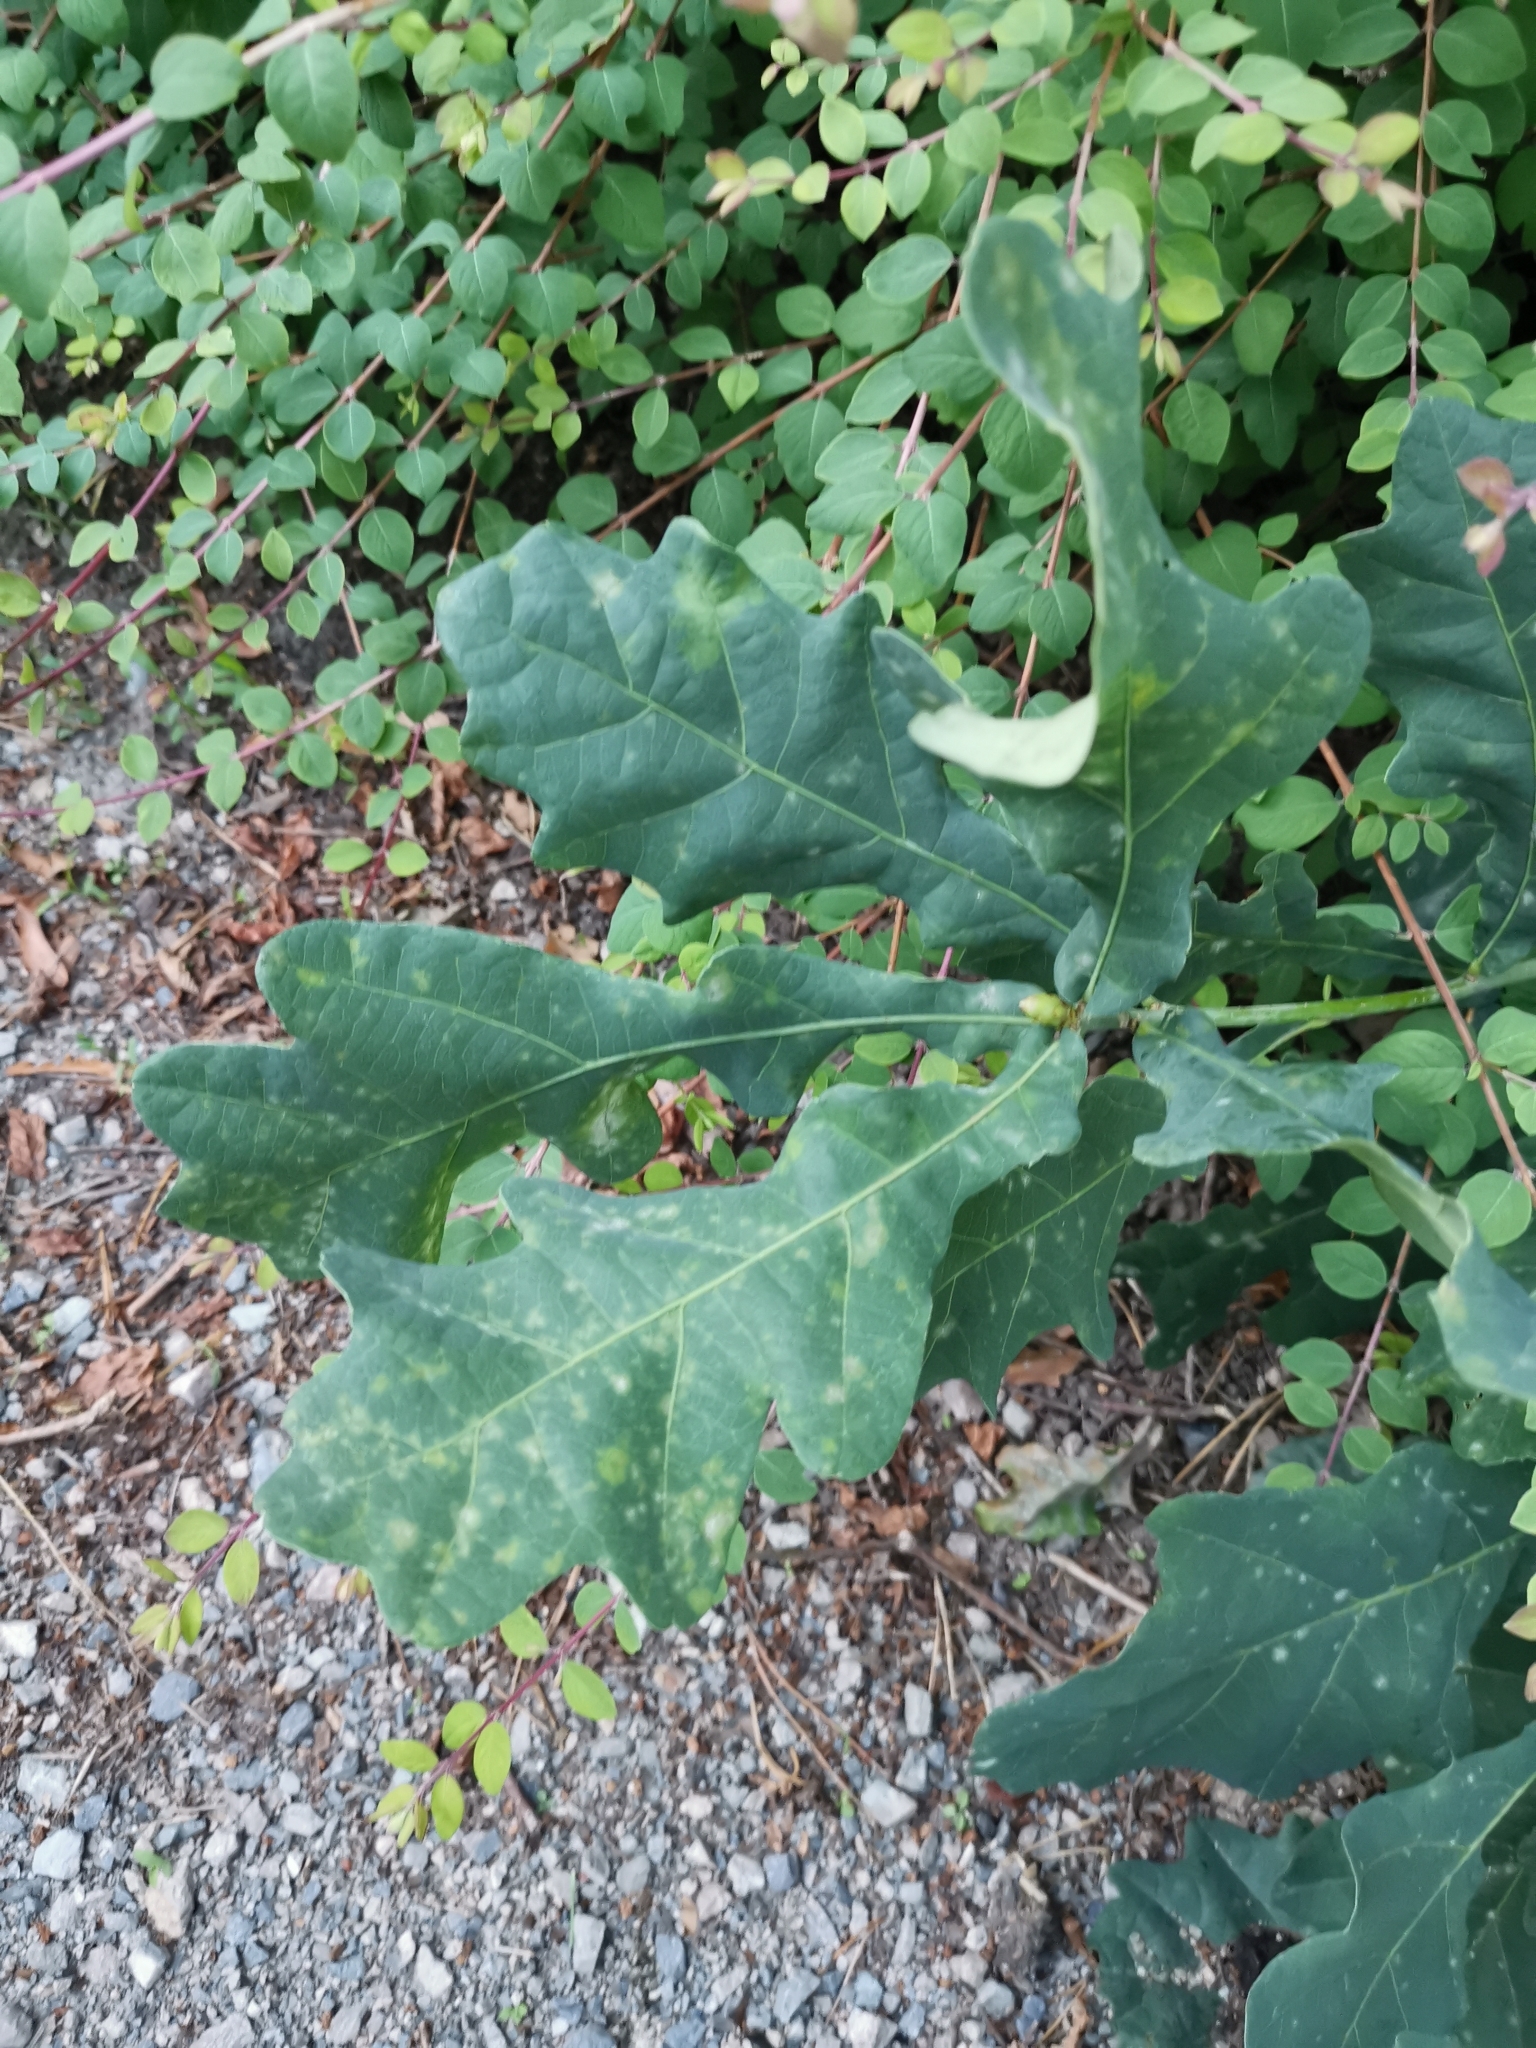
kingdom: Plantae
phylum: Tracheophyta
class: Magnoliopsida
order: Fagales
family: Fagaceae
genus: Quercus
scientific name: Quercus robur
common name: Pedunculate oak
